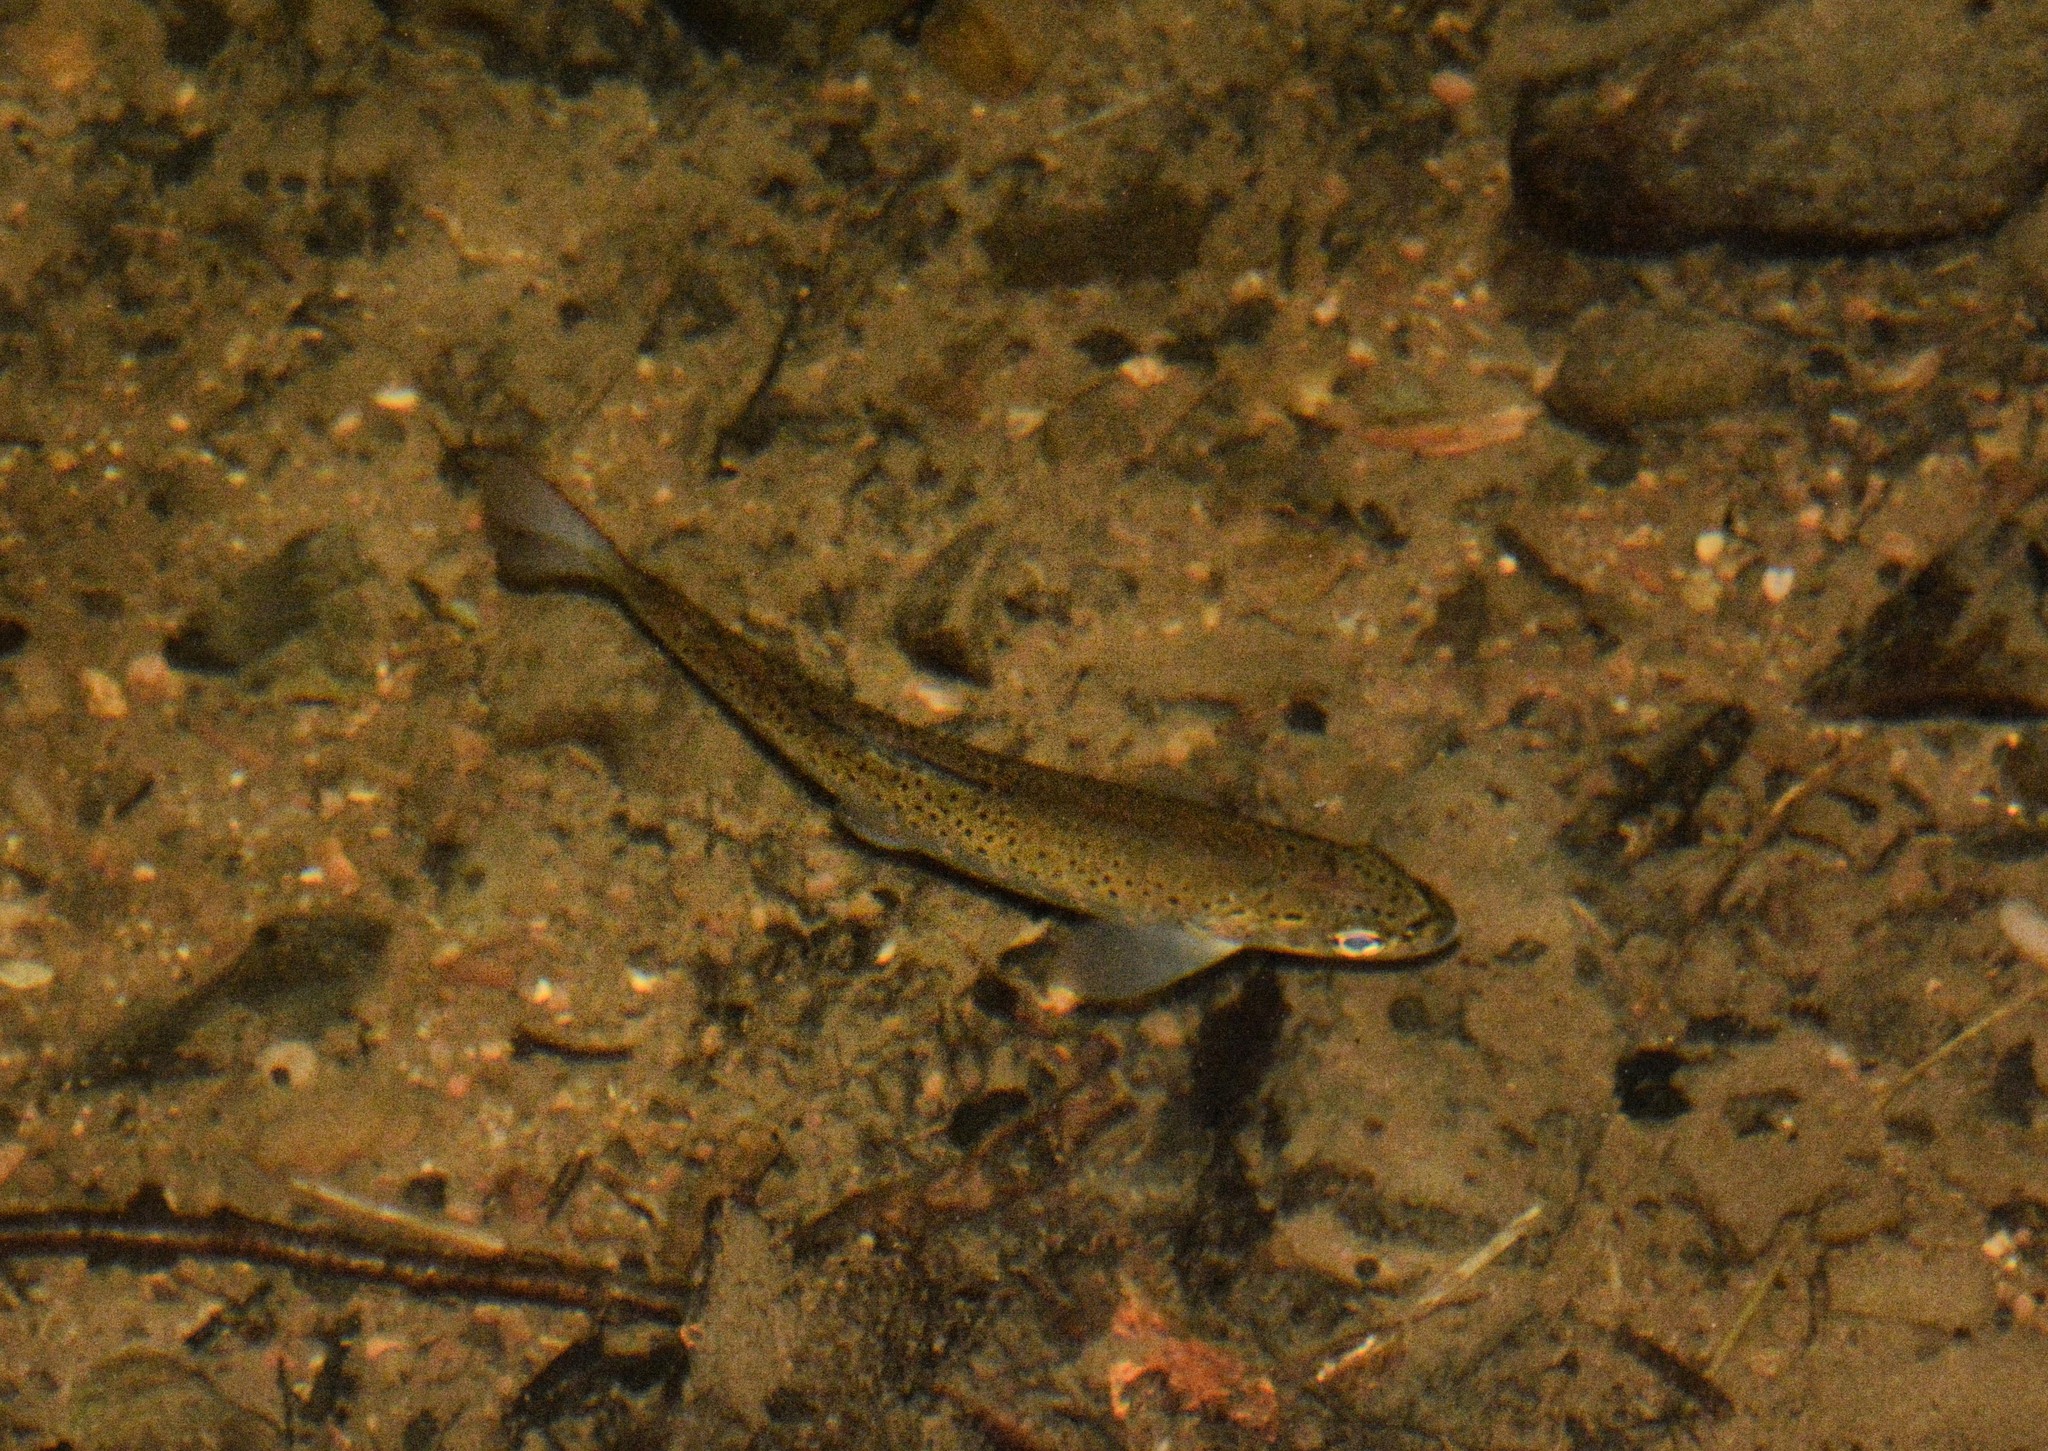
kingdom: Animalia
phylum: Chordata
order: Salmoniformes
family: Salmonidae
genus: Salmo
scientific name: Salmo trutta
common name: Brown trout
